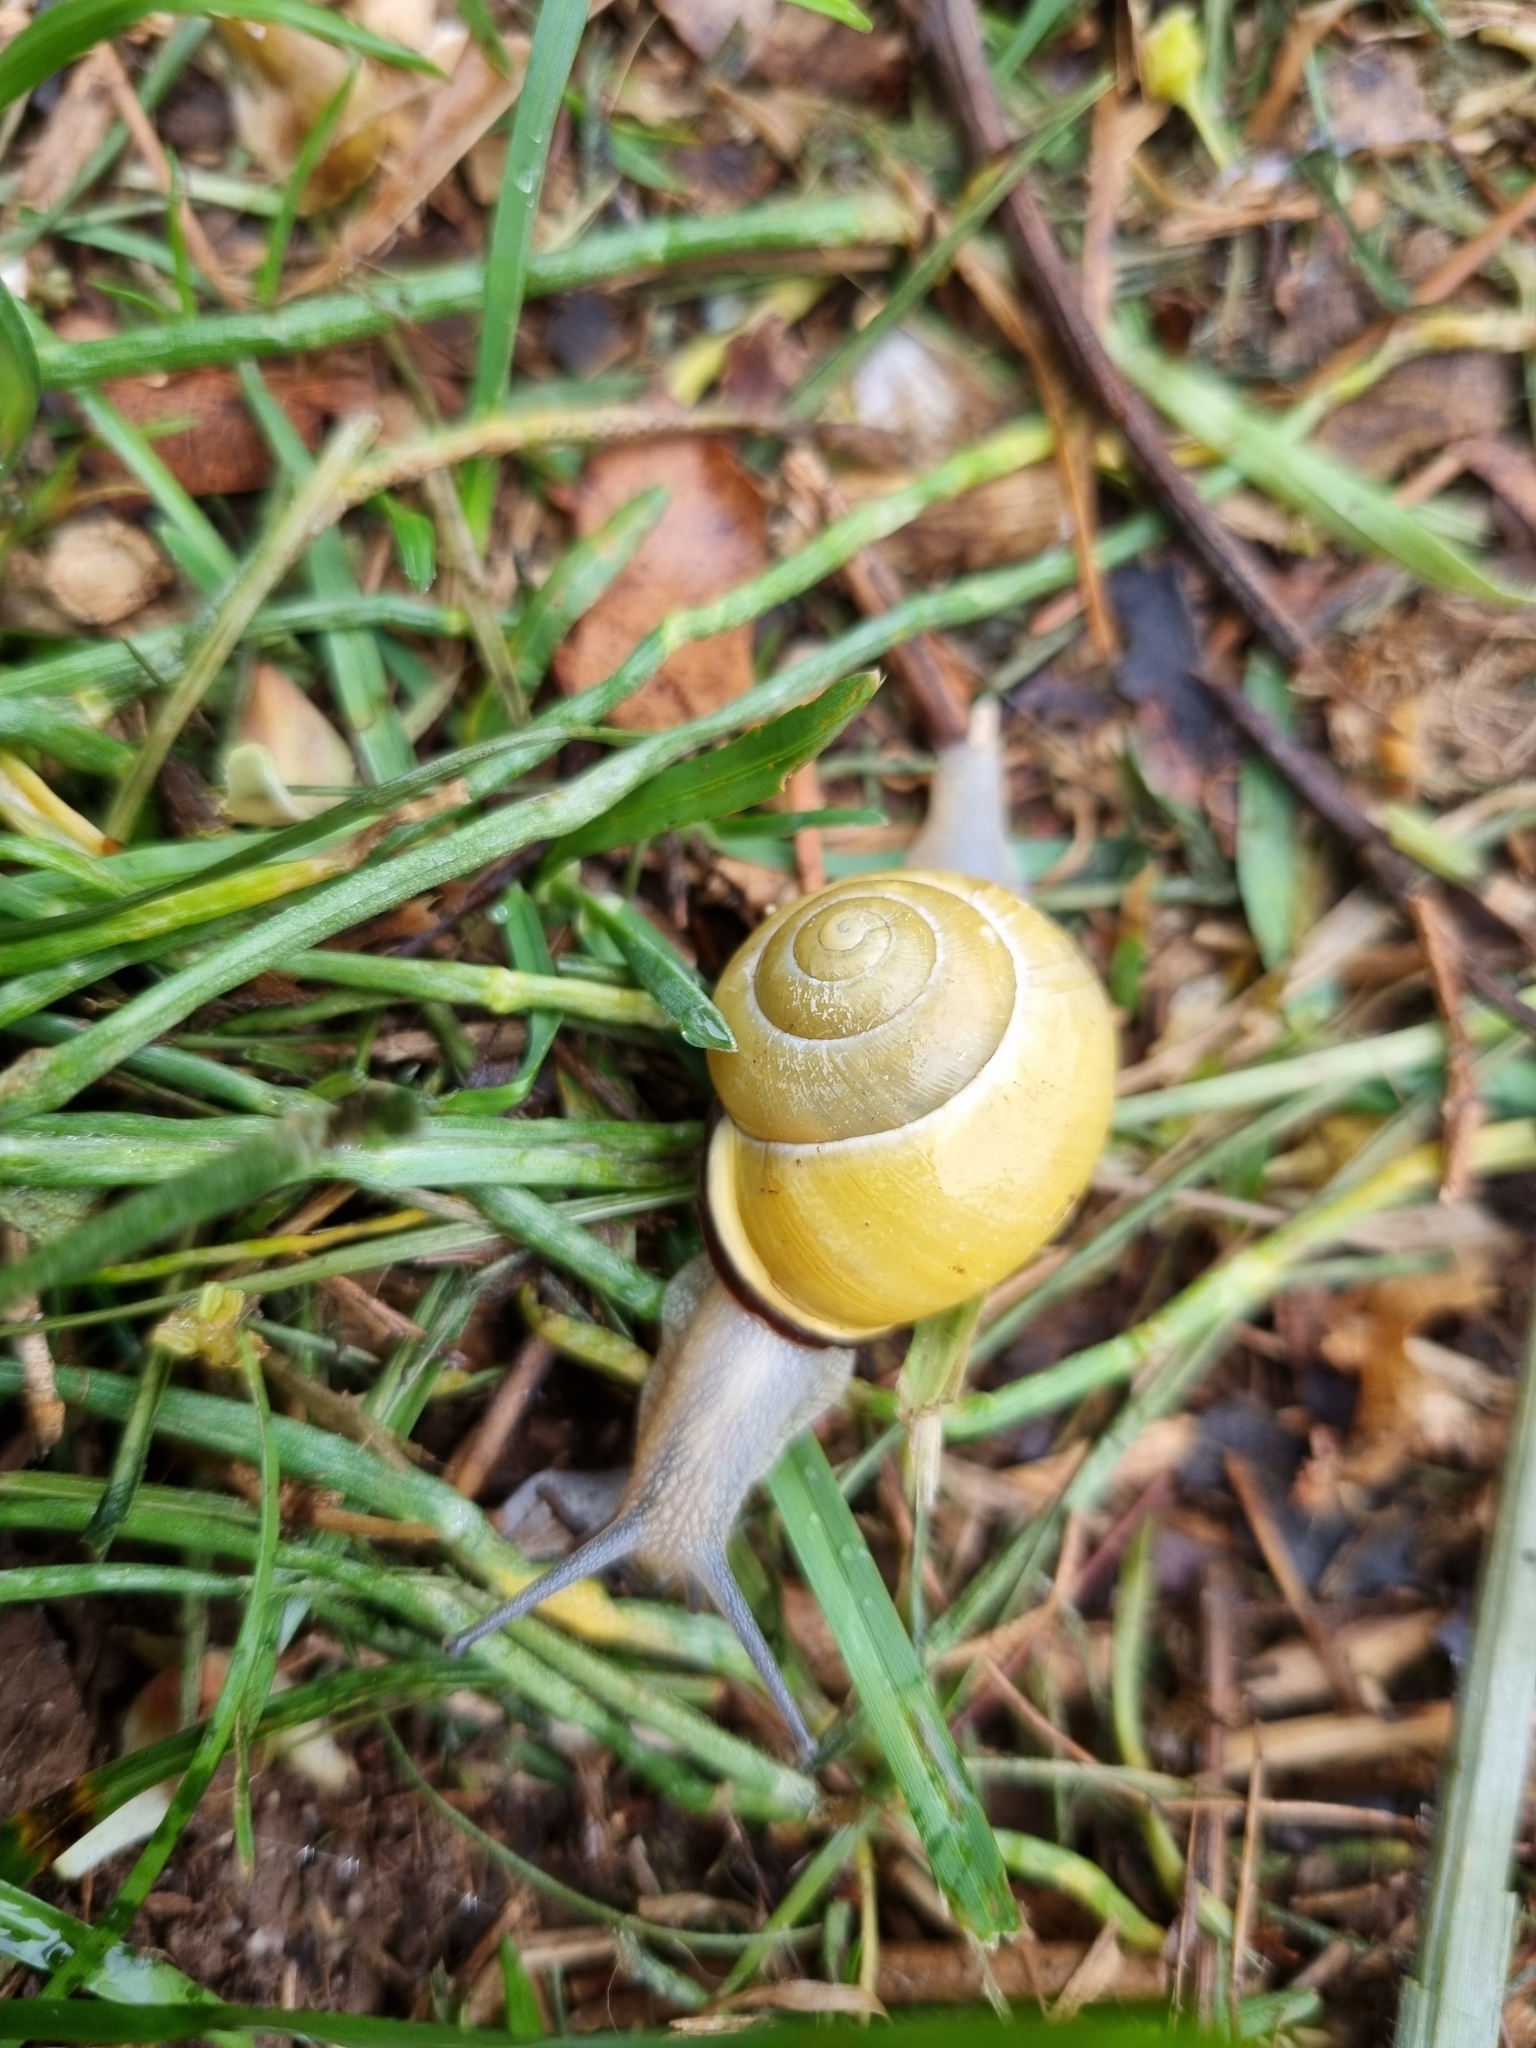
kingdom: Animalia
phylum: Mollusca
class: Gastropoda
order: Stylommatophora
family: Helicidae
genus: Cepaea
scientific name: Cepaea nemoralis
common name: Grovesnail
